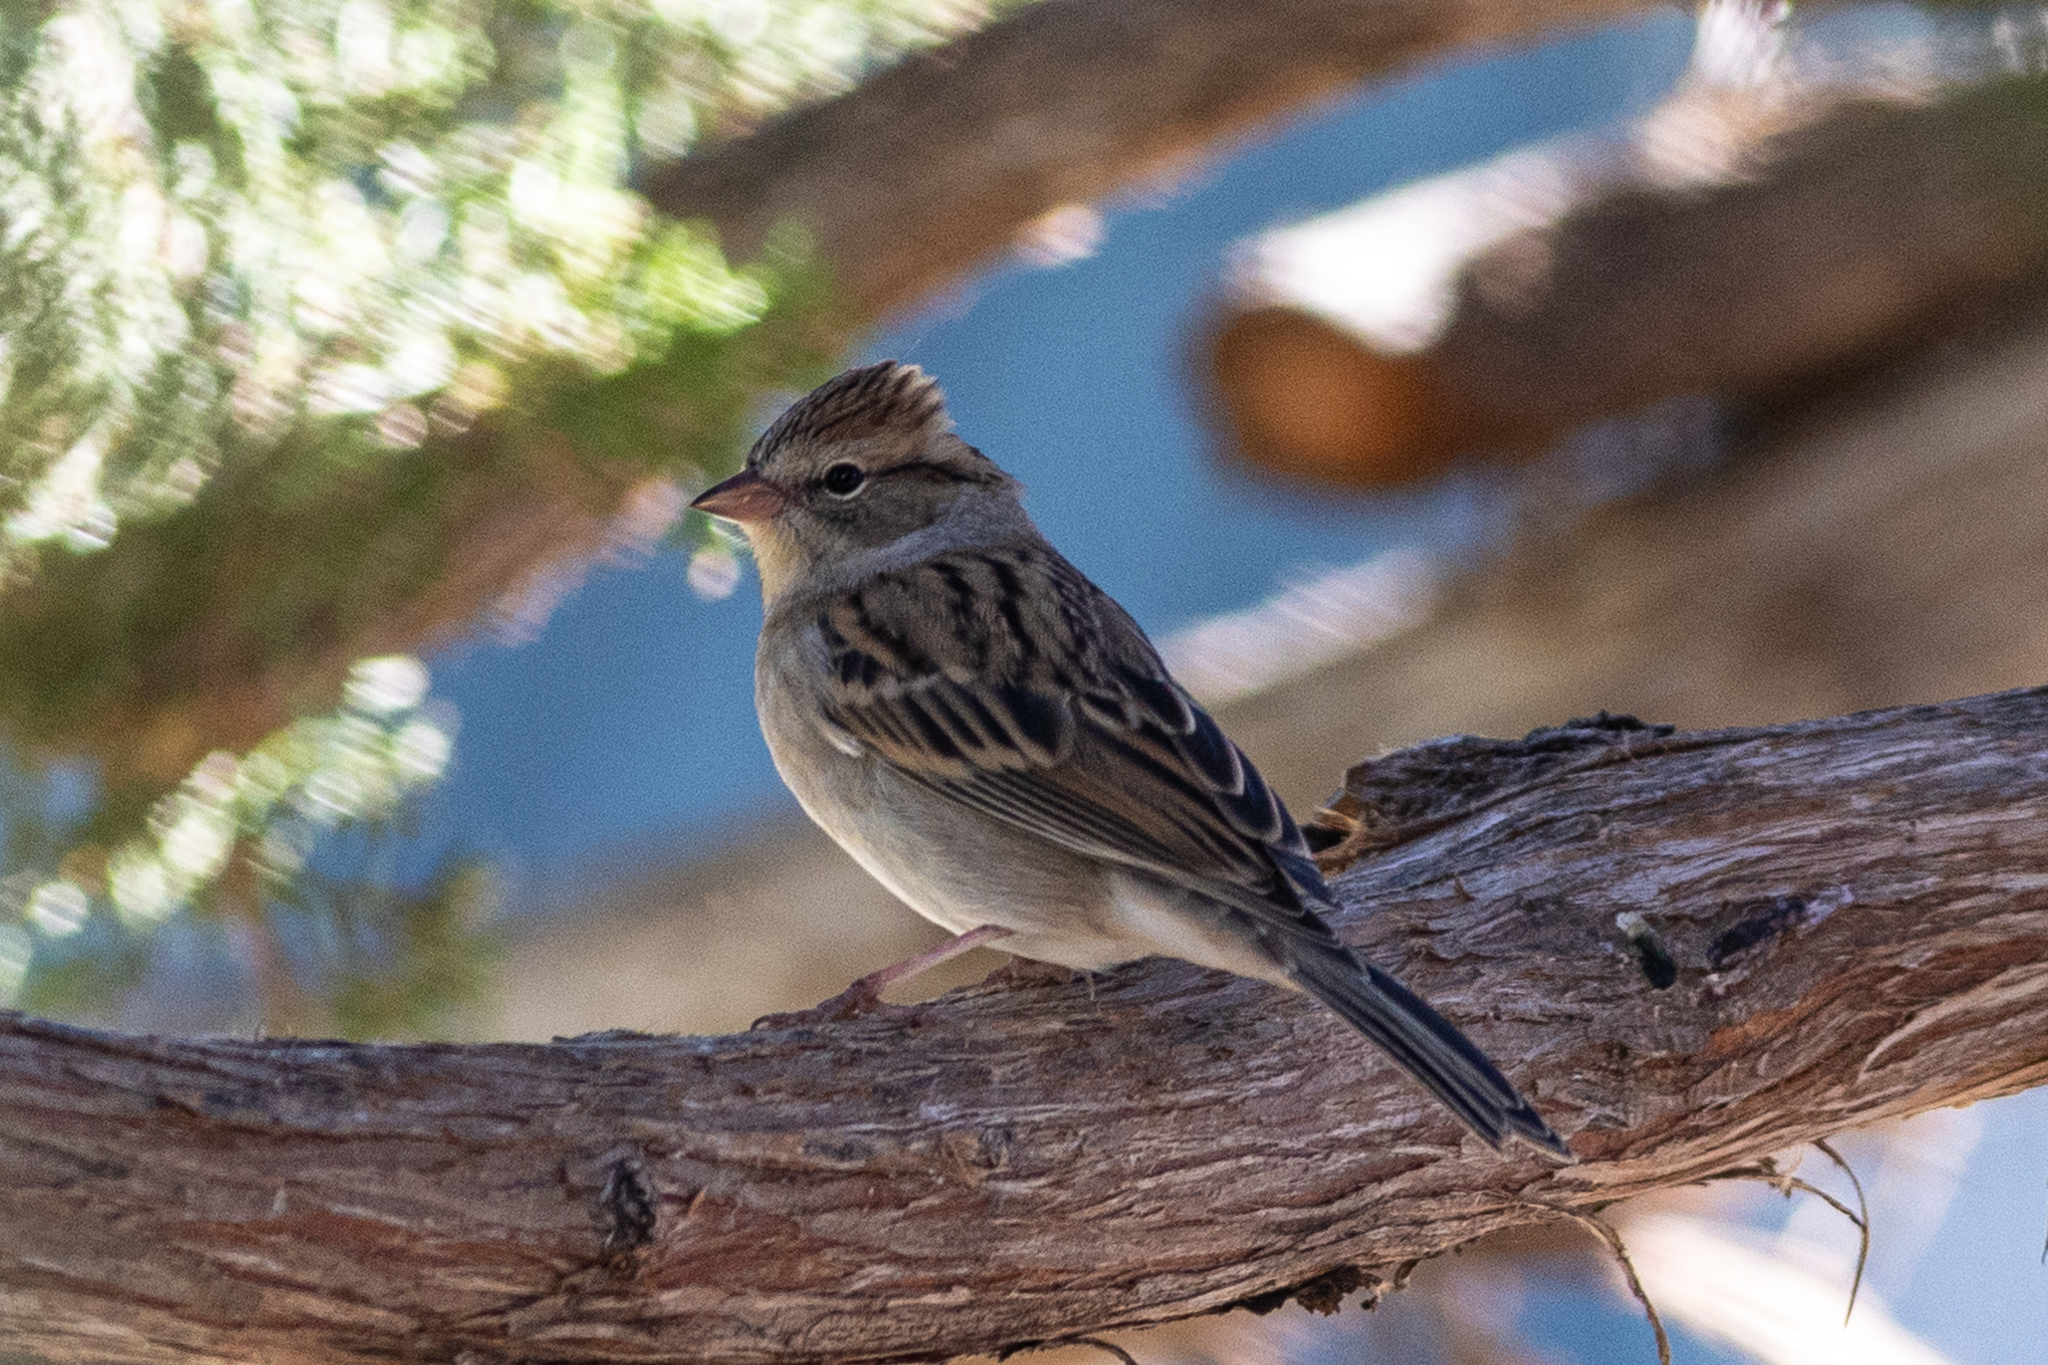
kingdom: Animalia
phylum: Chordata
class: Aves
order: Passeriformes
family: Passerellidae
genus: Spizella
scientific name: Spizella passerina
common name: Chipping sparrow
